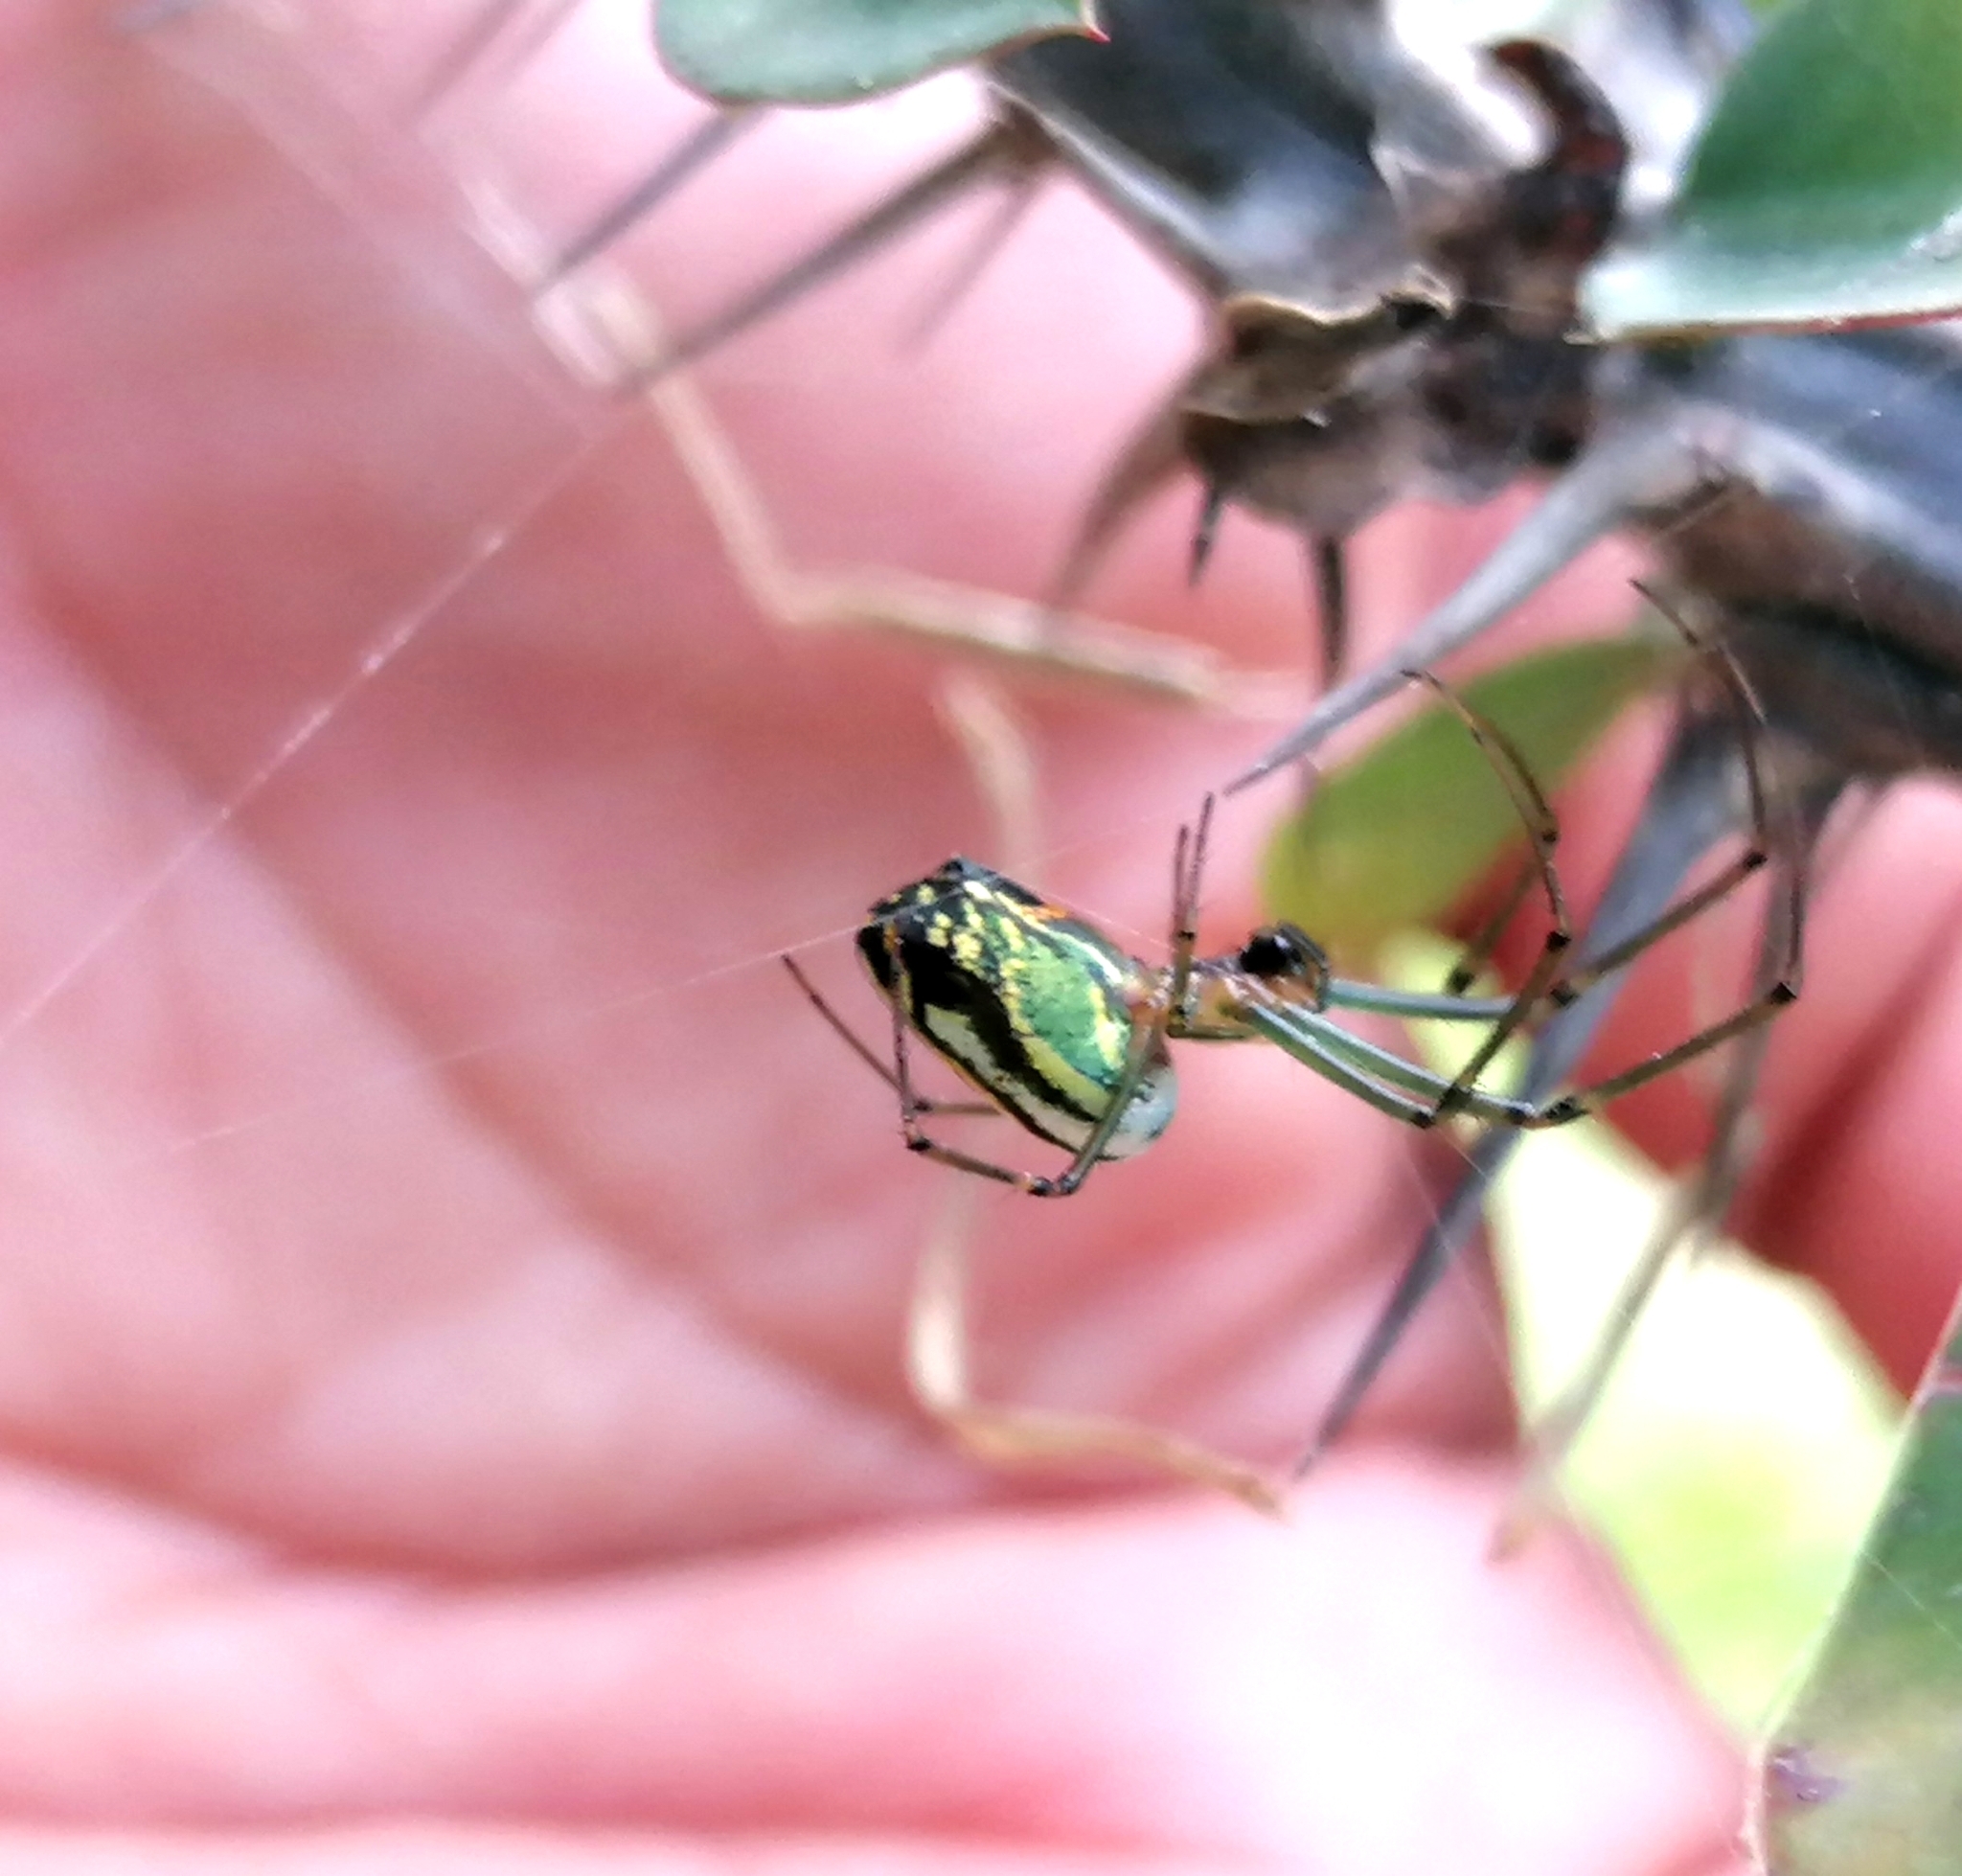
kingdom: Animalia
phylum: Arthropoda
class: Arachnida
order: Araneae
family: Tetragnathidae
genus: Leucauge
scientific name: Leucauge mariana
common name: Longjawed orb weavers
